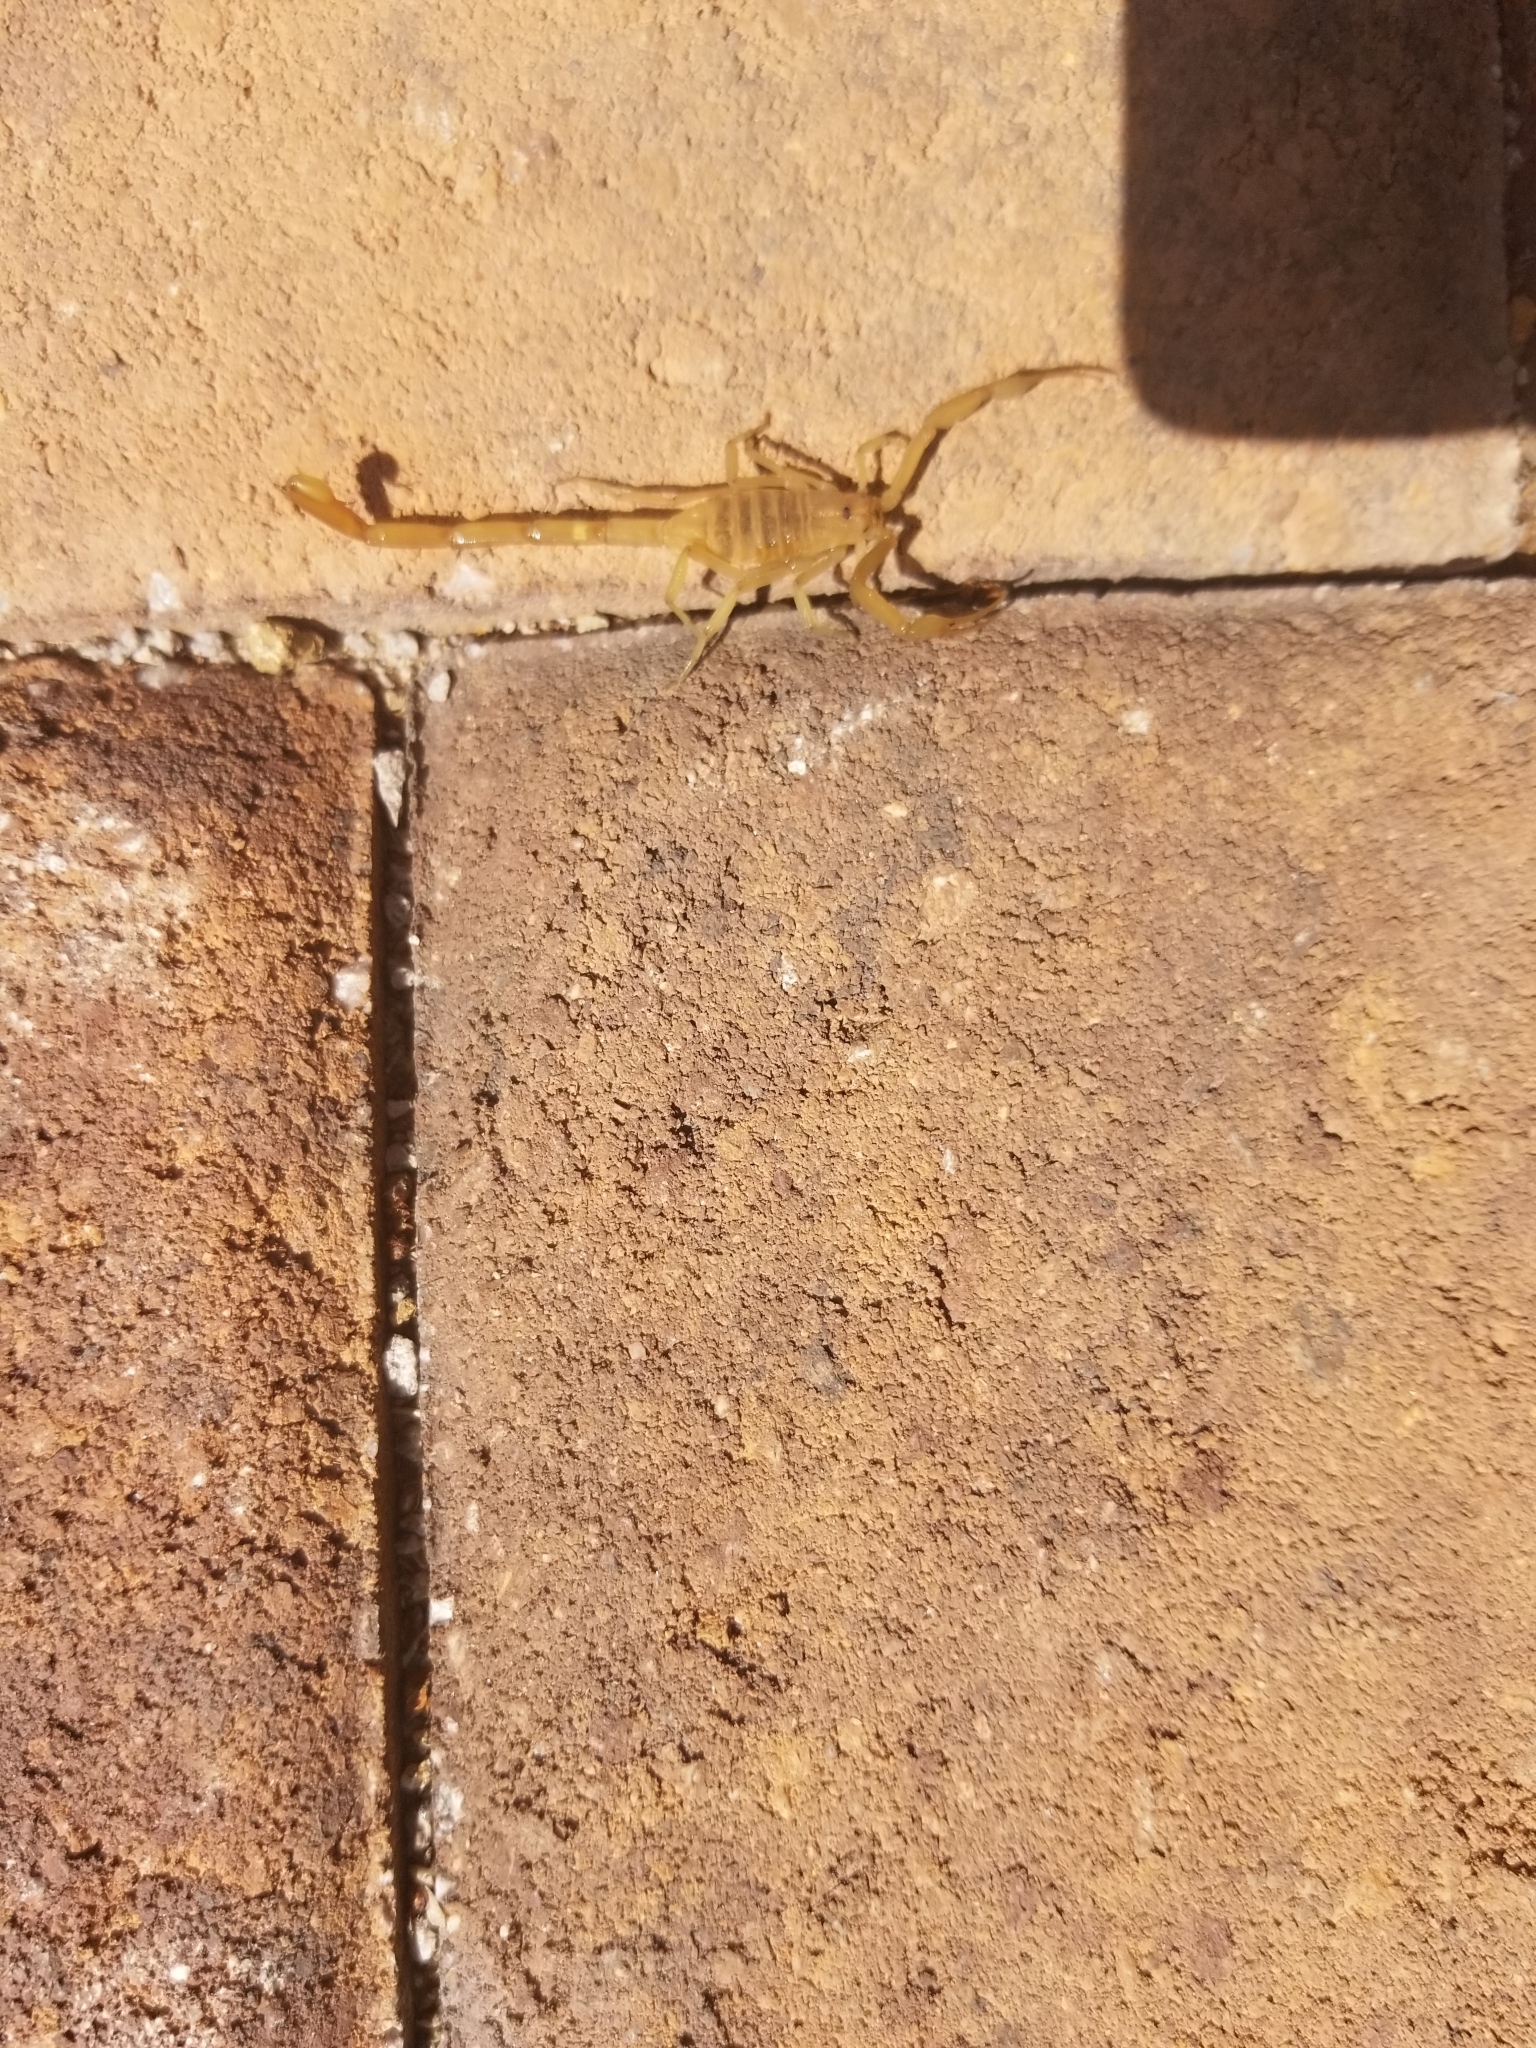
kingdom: Animalia
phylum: Arthropoda
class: Arachnida
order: Scorpiones
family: Buthidae
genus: Centruroides
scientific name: Centruroides sculpturatus
